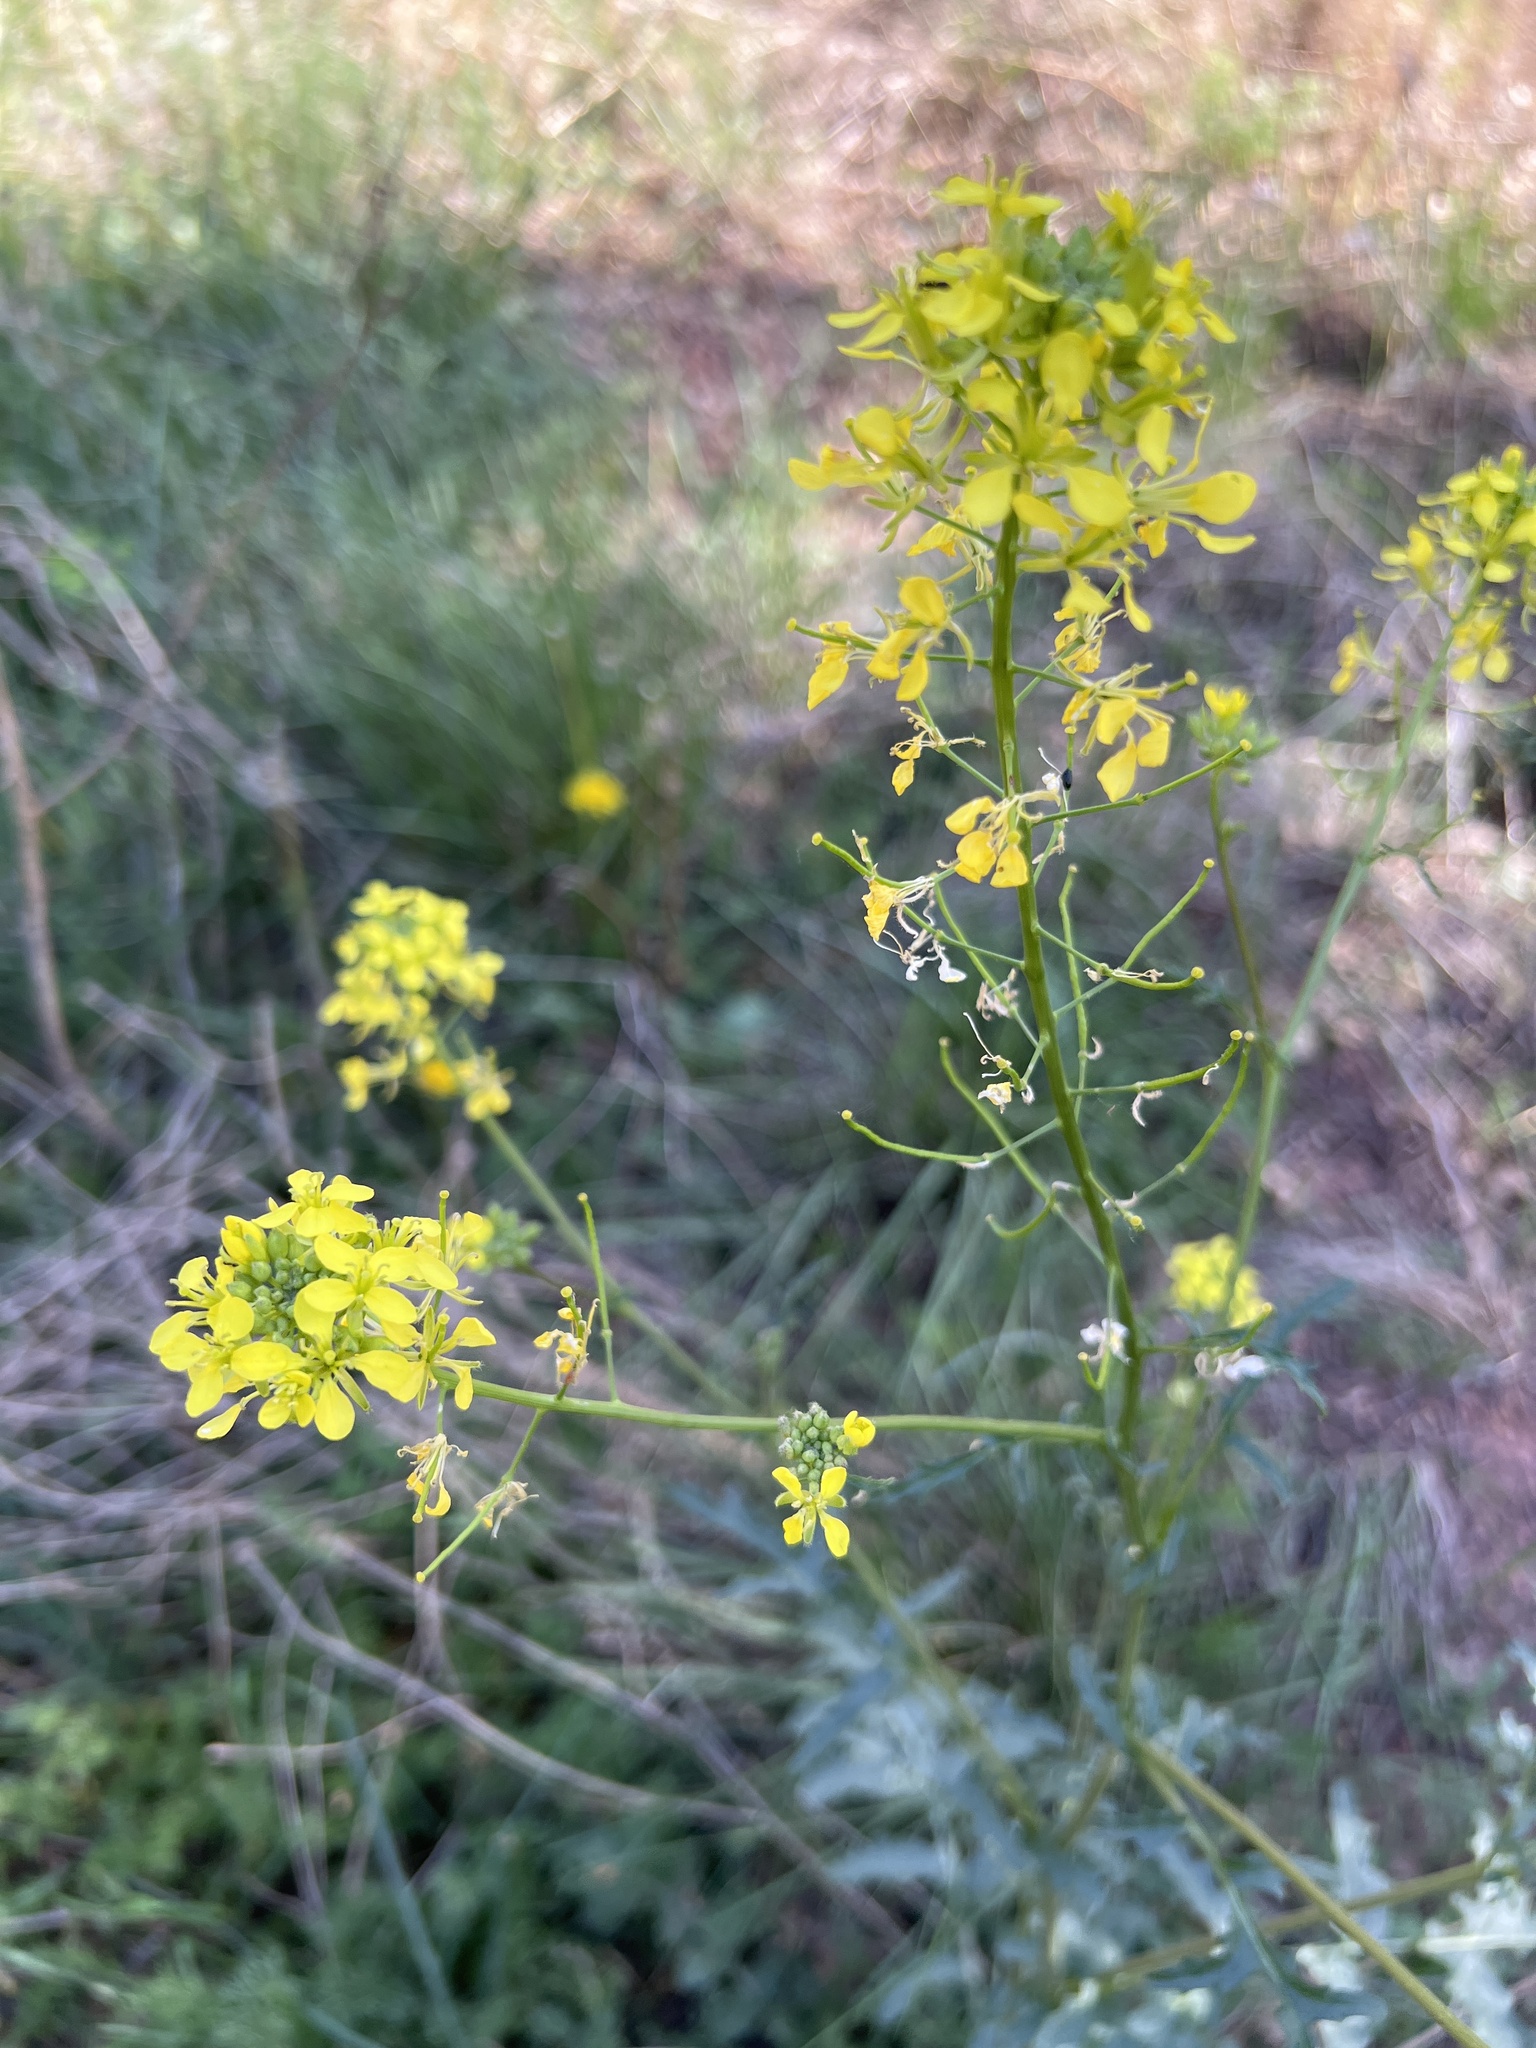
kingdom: Plantae
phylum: Tracheophyta
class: Magnoliopsida
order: Brassicales
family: Brassicaceae
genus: Erucastrum
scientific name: Erucastrum nasturtiifolium
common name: Watercress-leaf rocket
